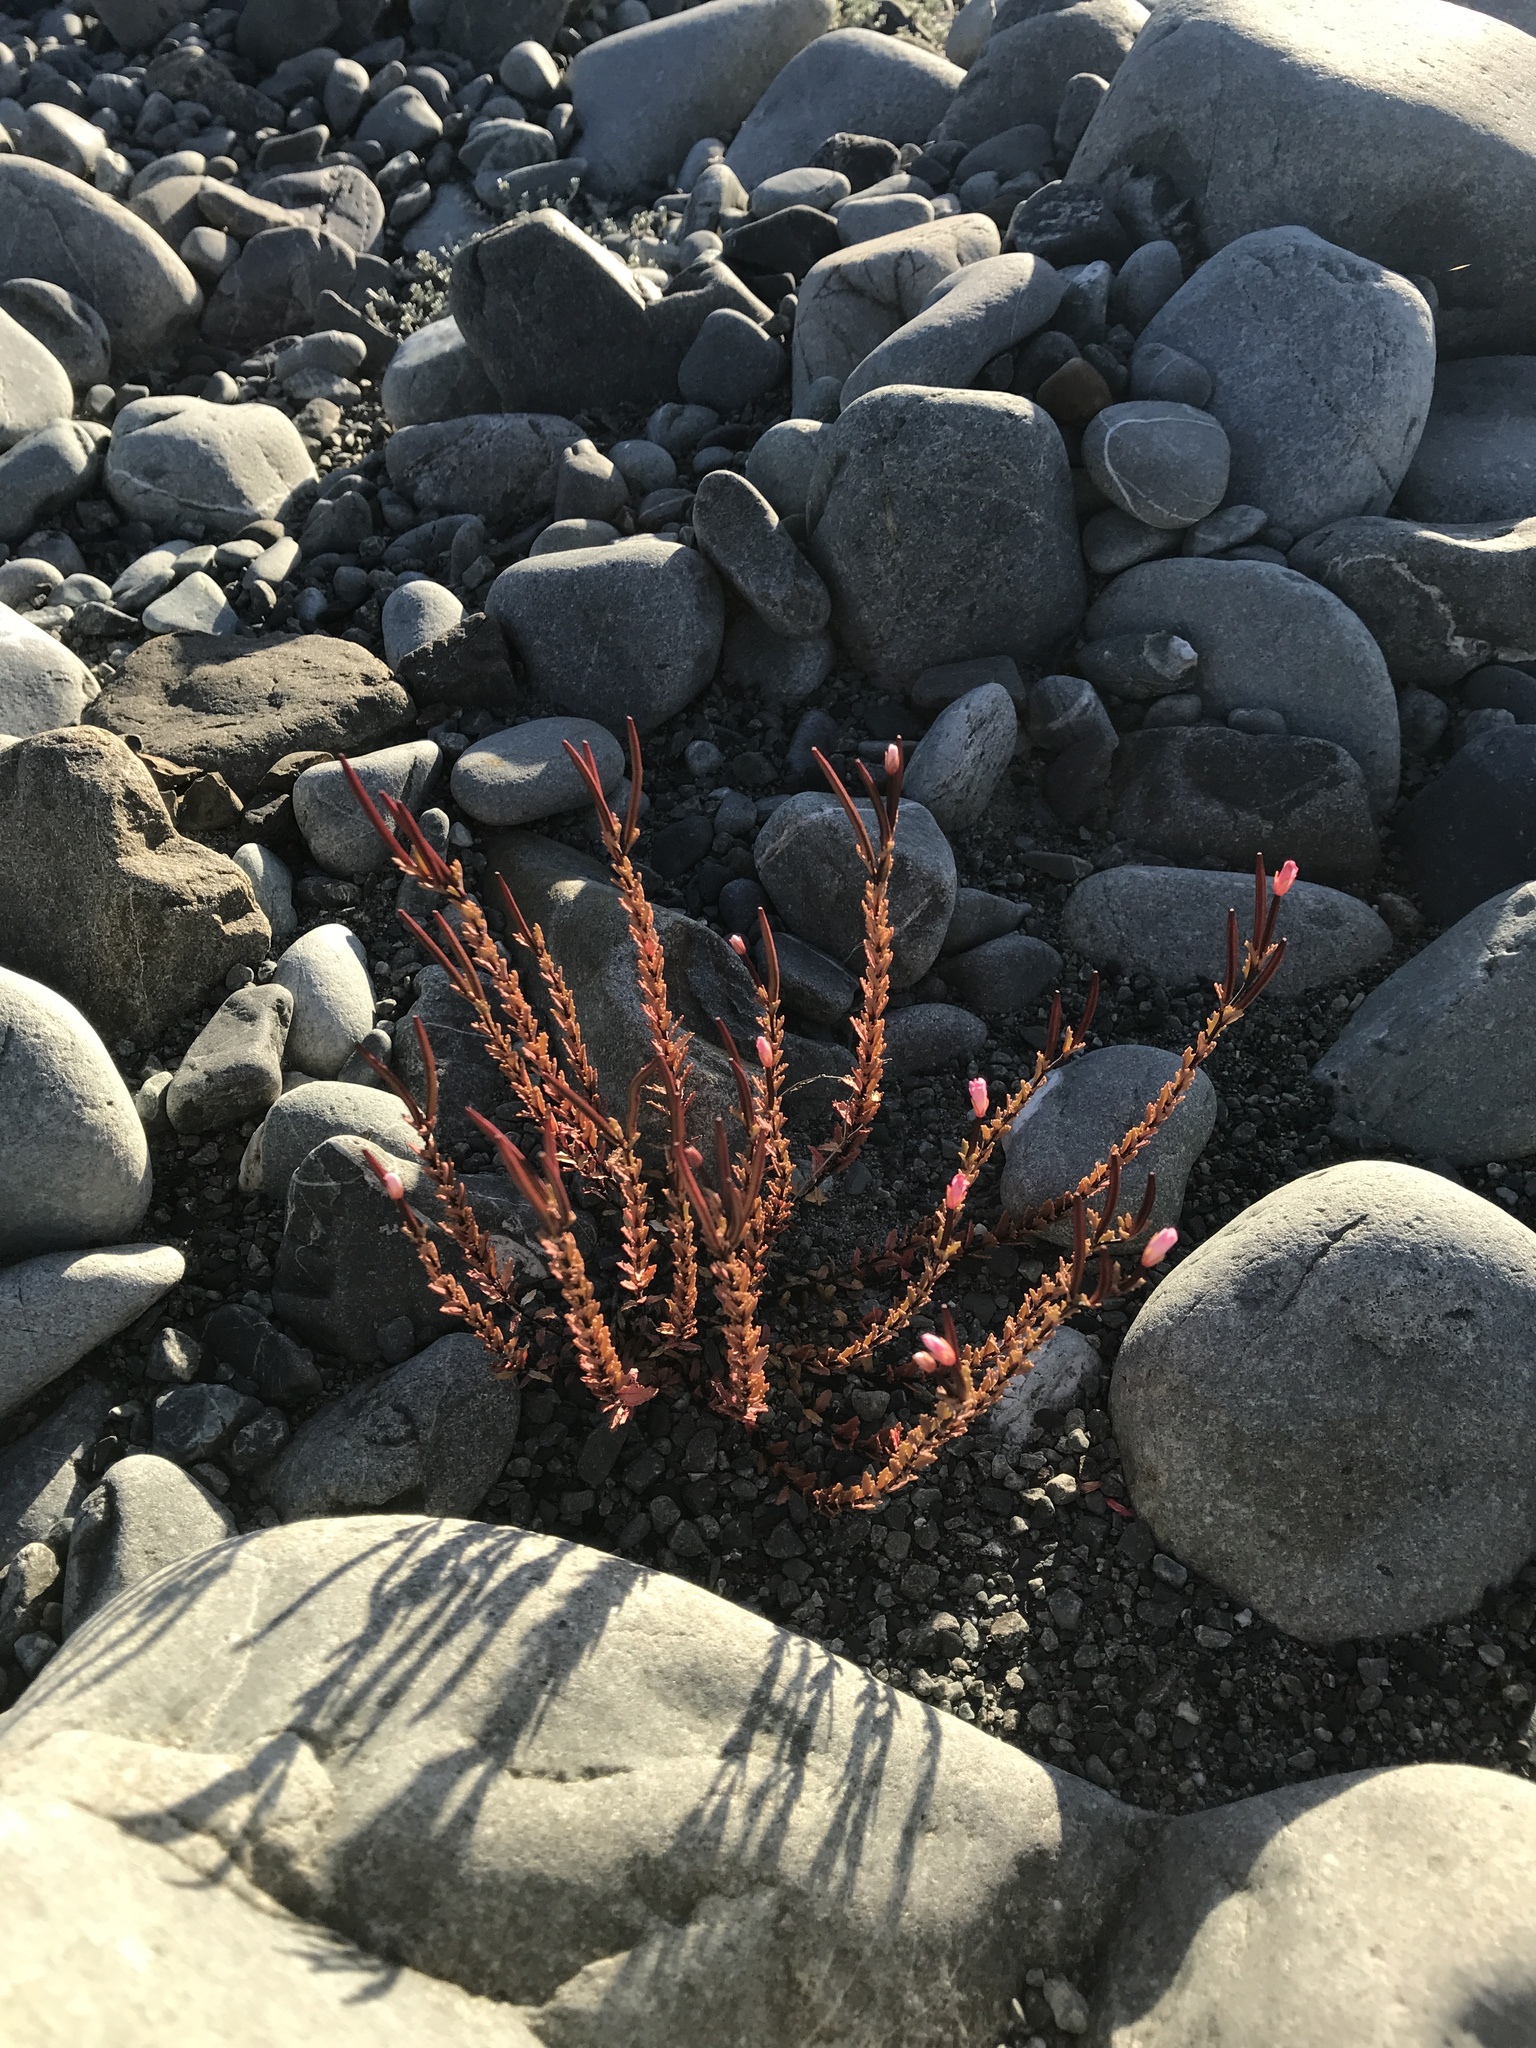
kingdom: Plantae
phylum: Tracheophyta
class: Magnoliopsida
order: Myrtales
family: Onagraceae
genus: Epilobium
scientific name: Epilobium melanocaulon
